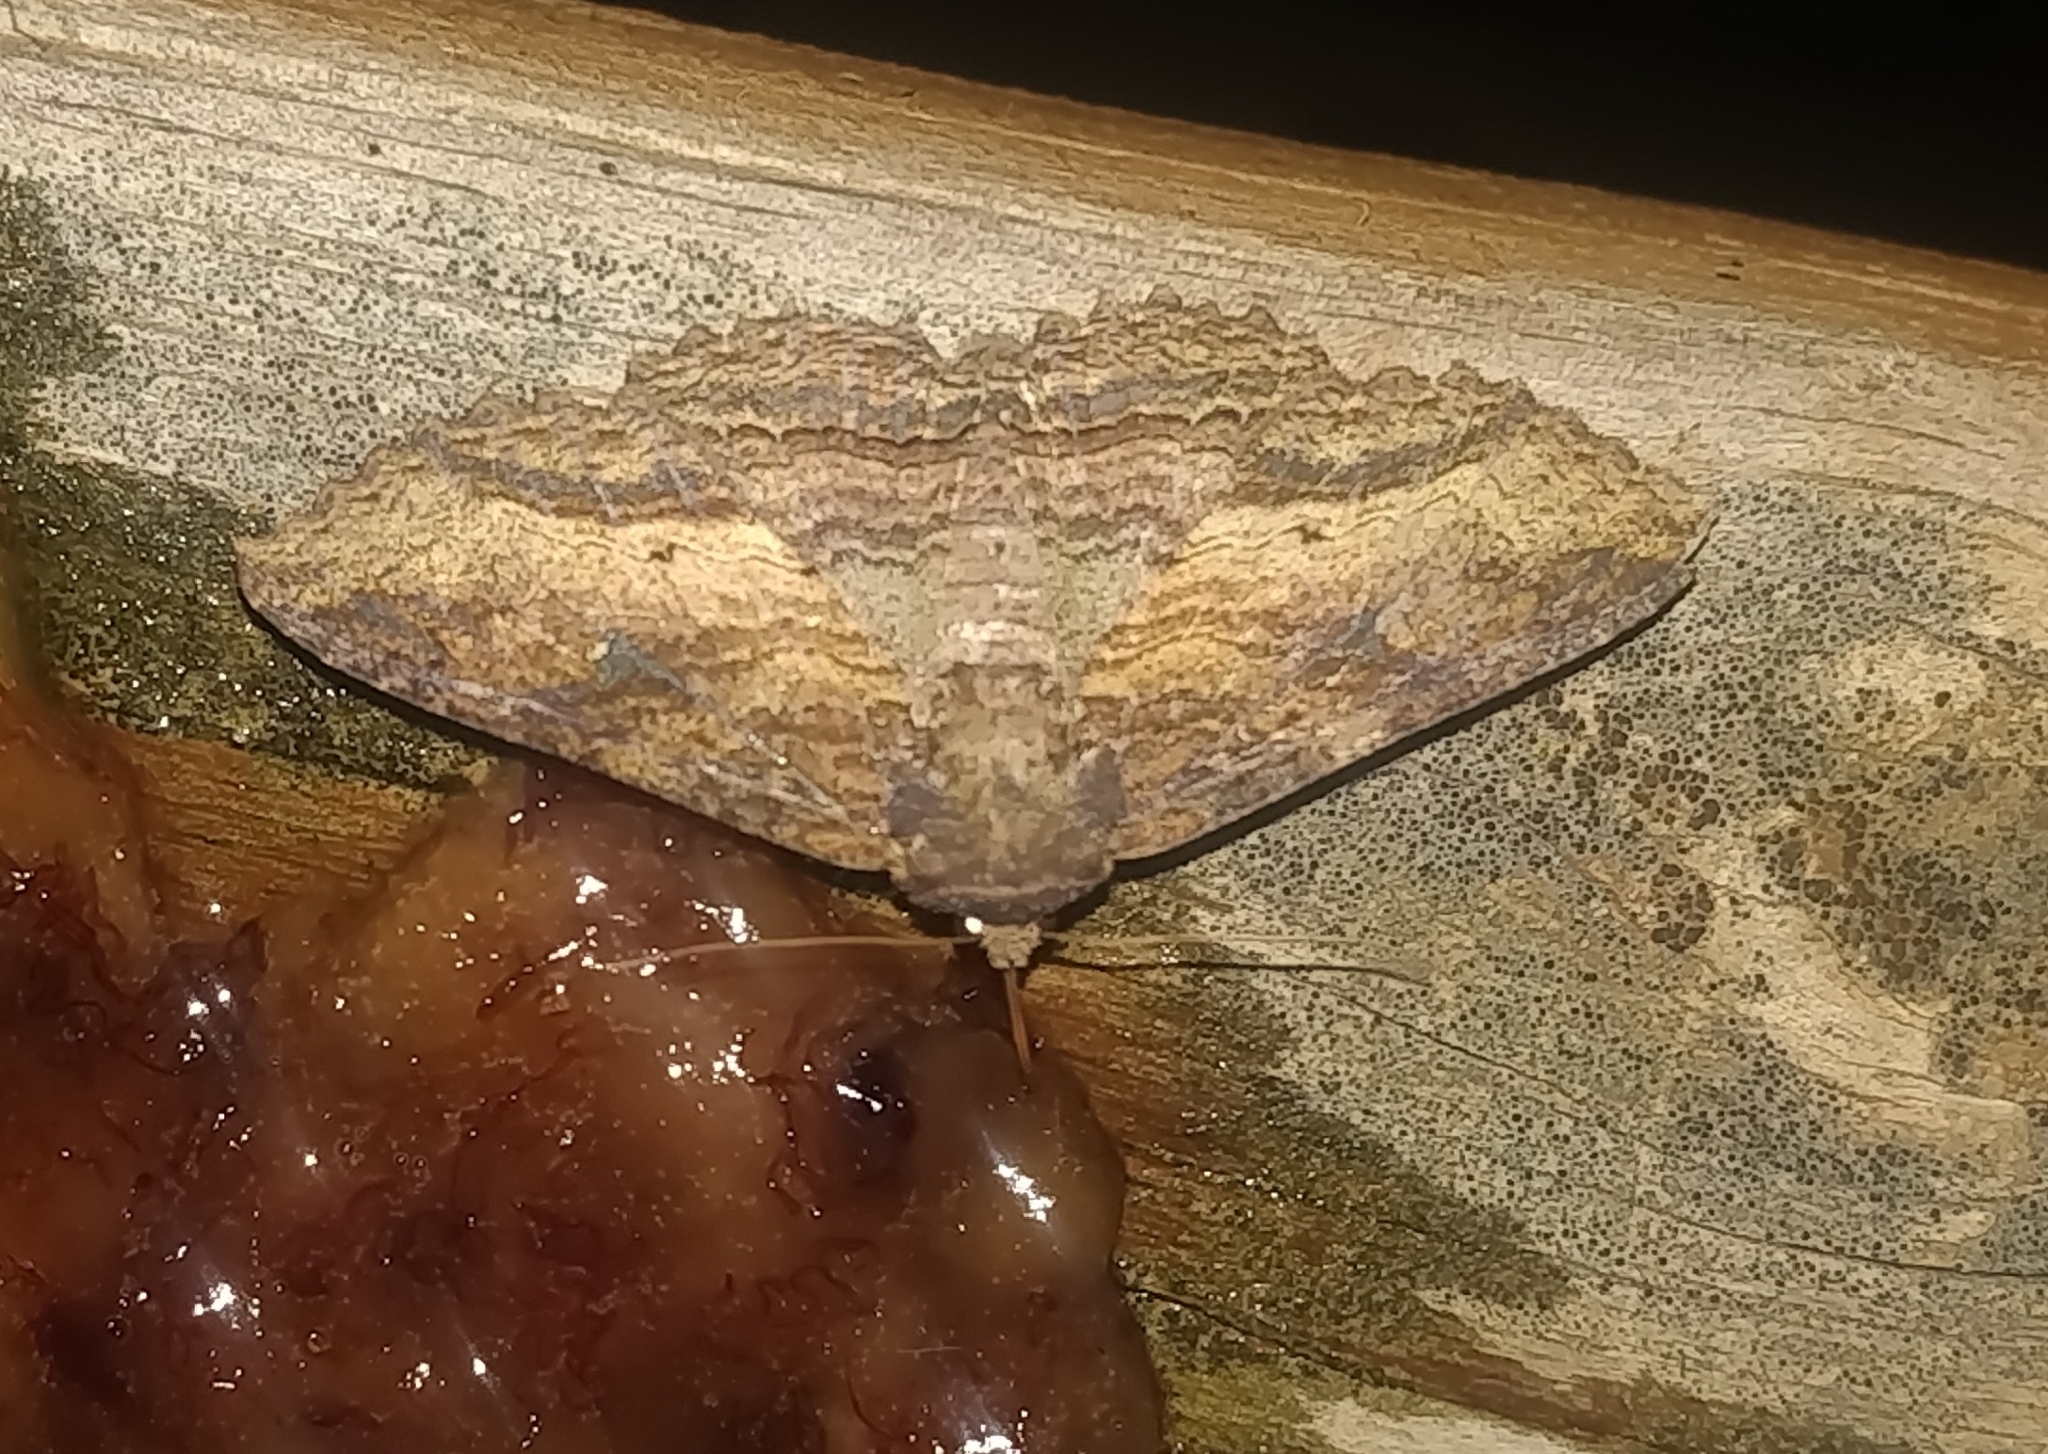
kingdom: Animalia
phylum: Arthropoda
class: Insecta
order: Lepidoptera
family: Erebidae
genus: Zale
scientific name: Zale lunata
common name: Lunate zale moth
